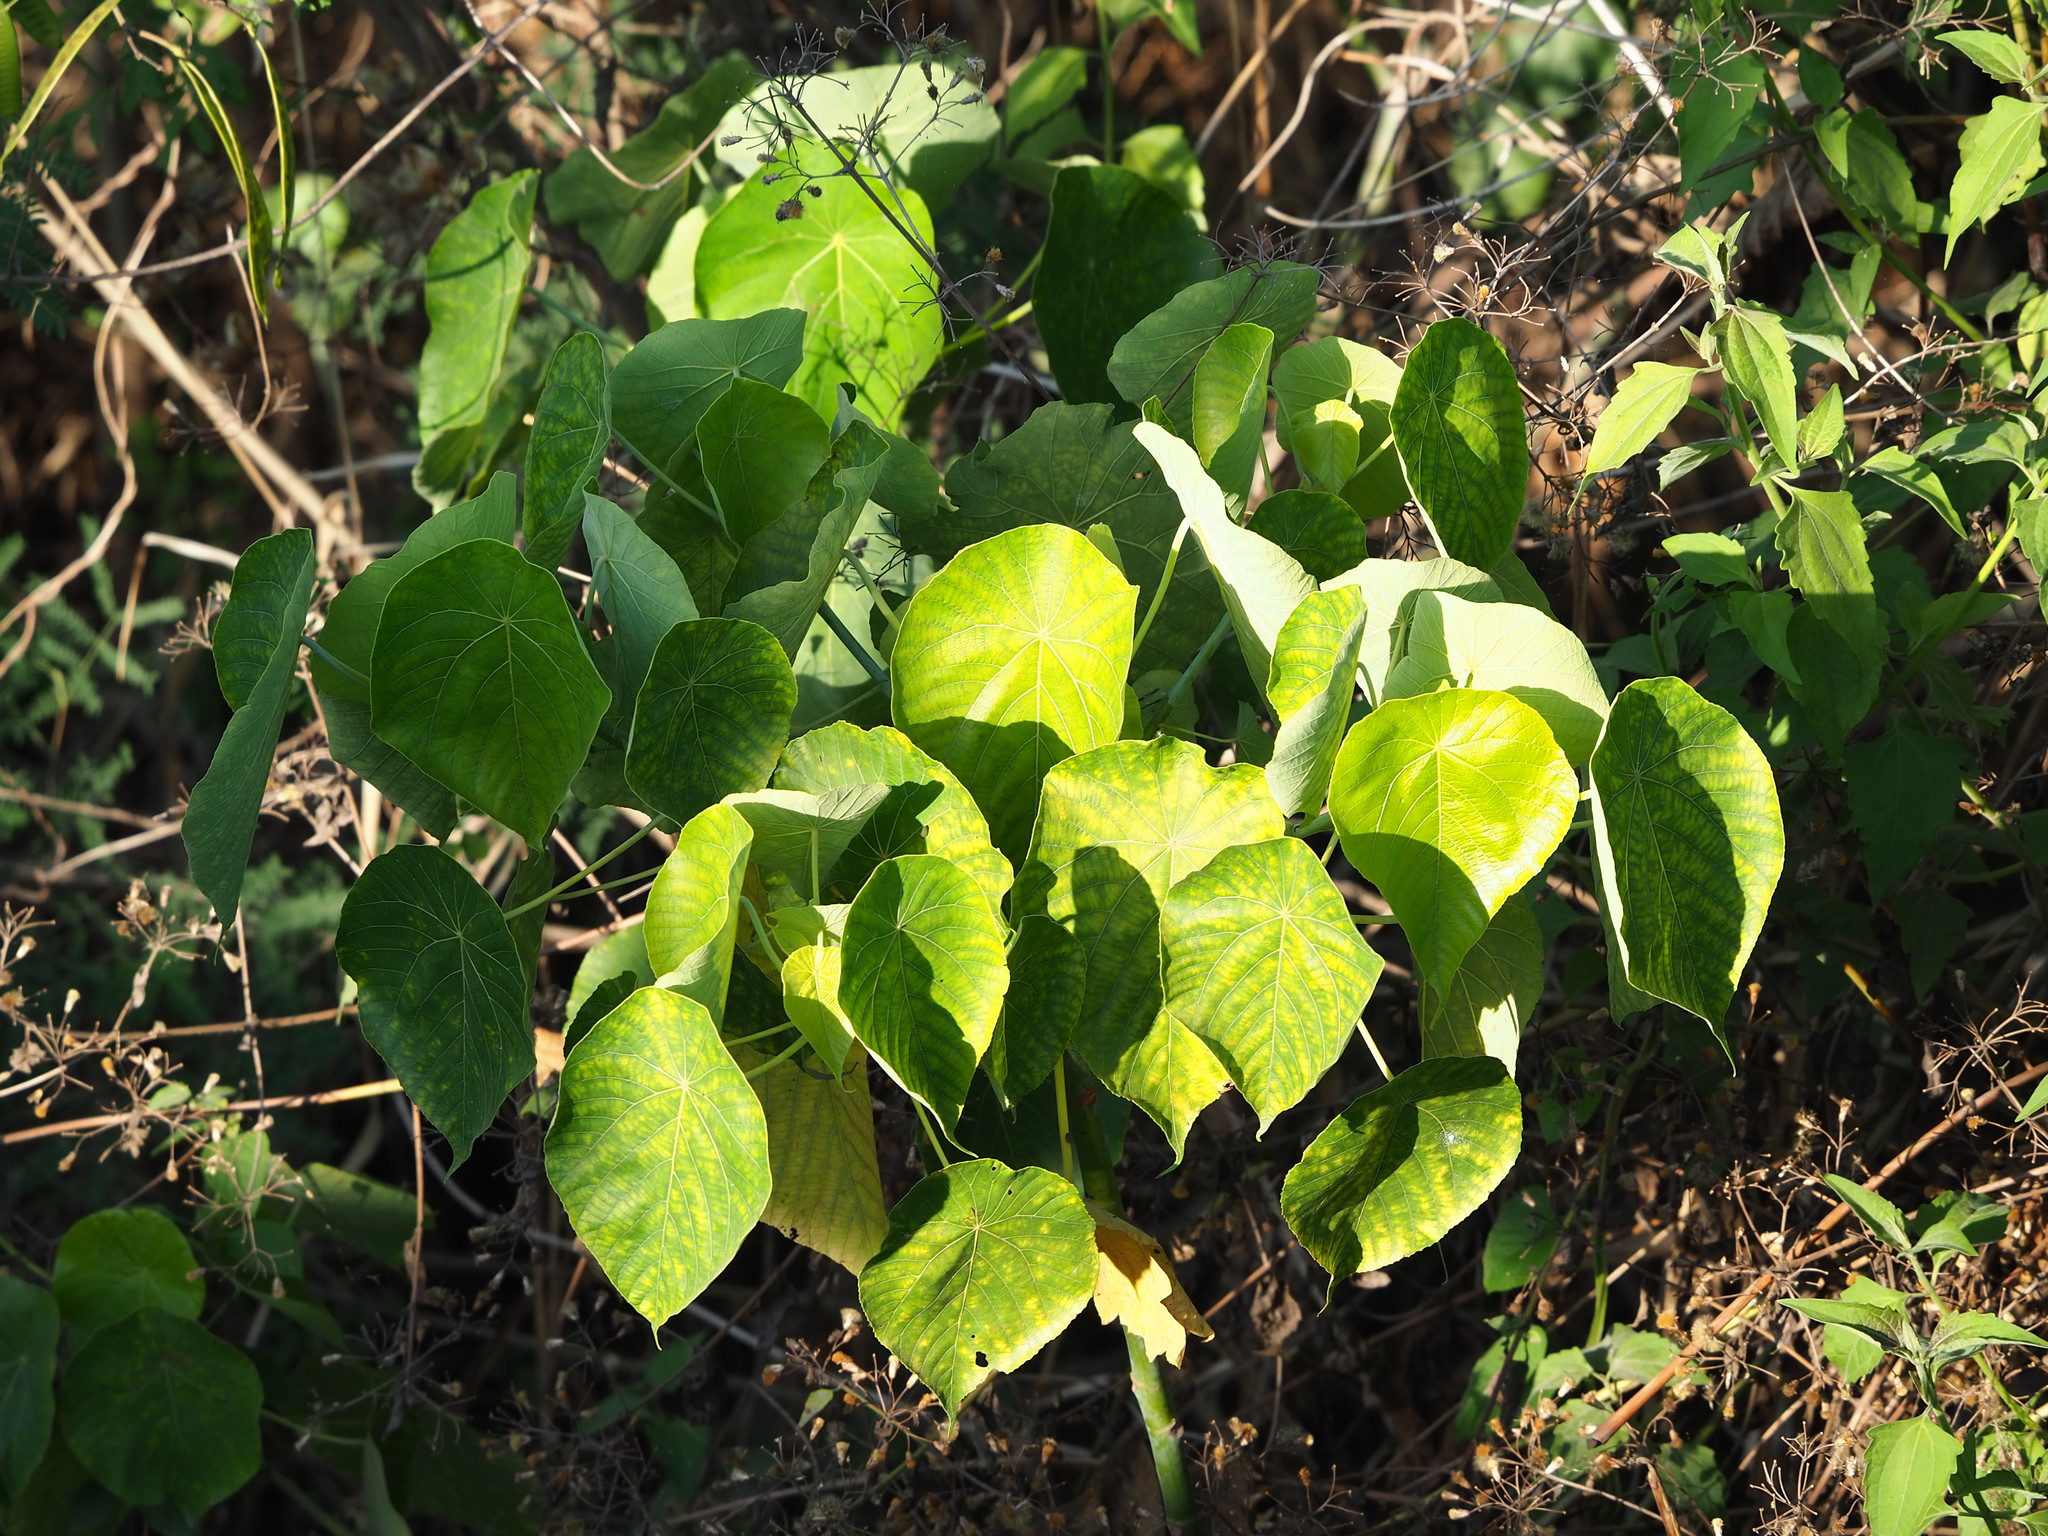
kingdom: Plantae
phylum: Tracheophyta
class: Magnoliopsida
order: Malpighiales
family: Euphorbiaceae
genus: Macaranga
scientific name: Macaranga tanarius
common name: Parasol leaf tree
